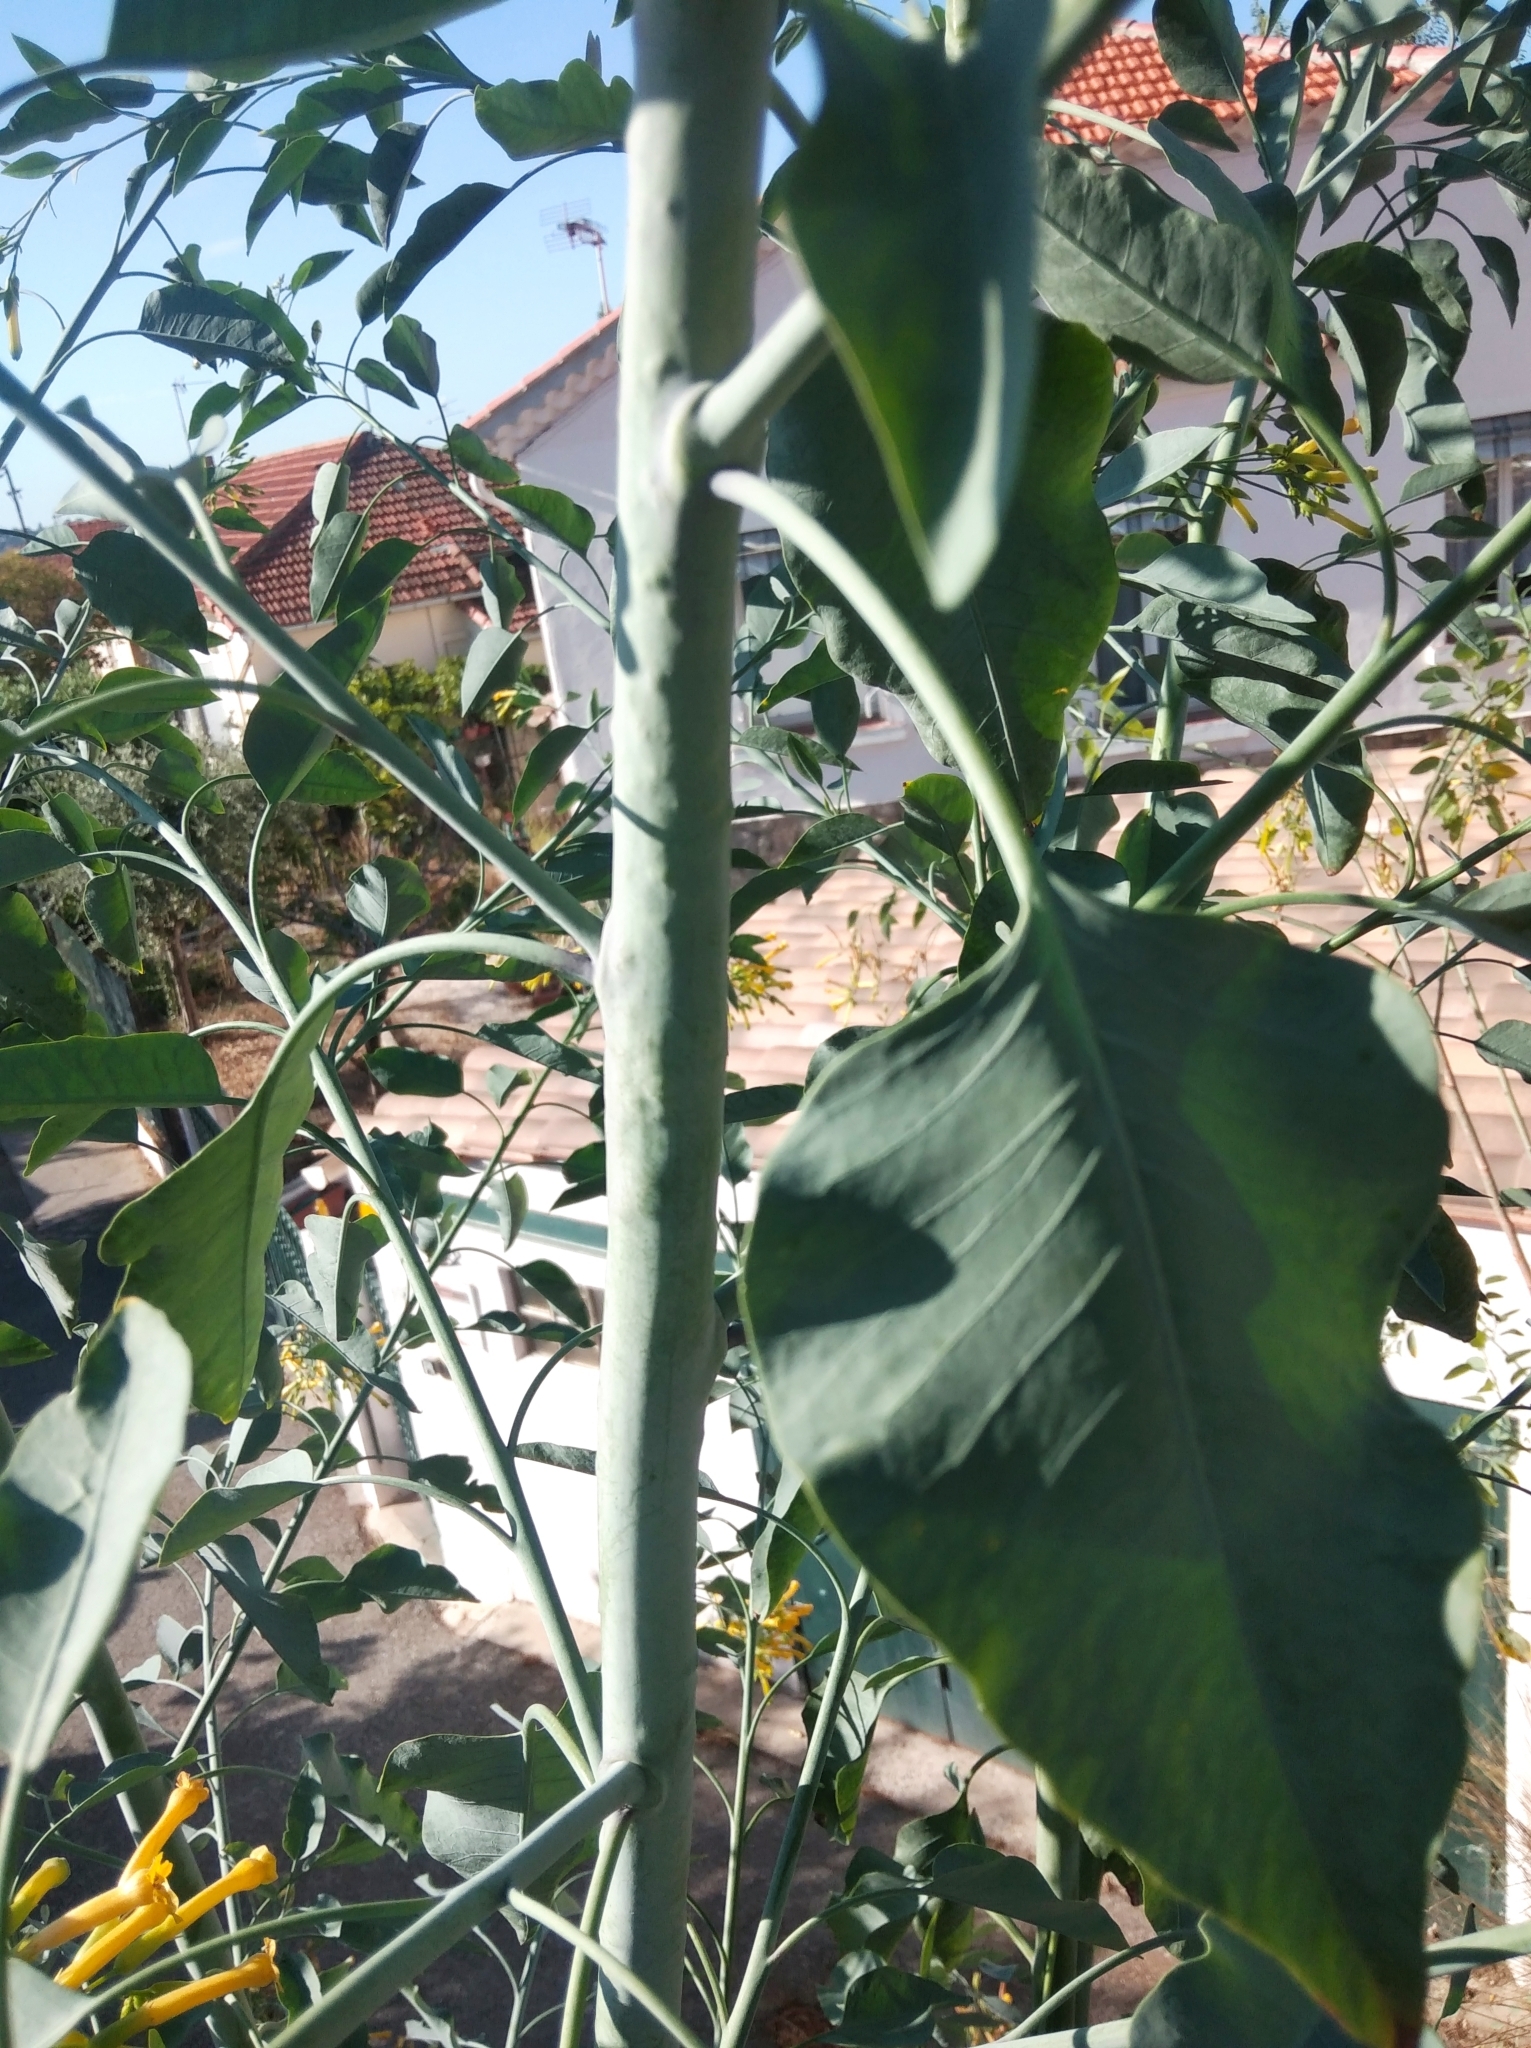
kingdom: Plantae
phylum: Tracheophyta
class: Magnoliopsida
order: Solanales
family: Solanaceae
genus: Nicotiana
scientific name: Nicotiana glauca
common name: Tree tobacco
